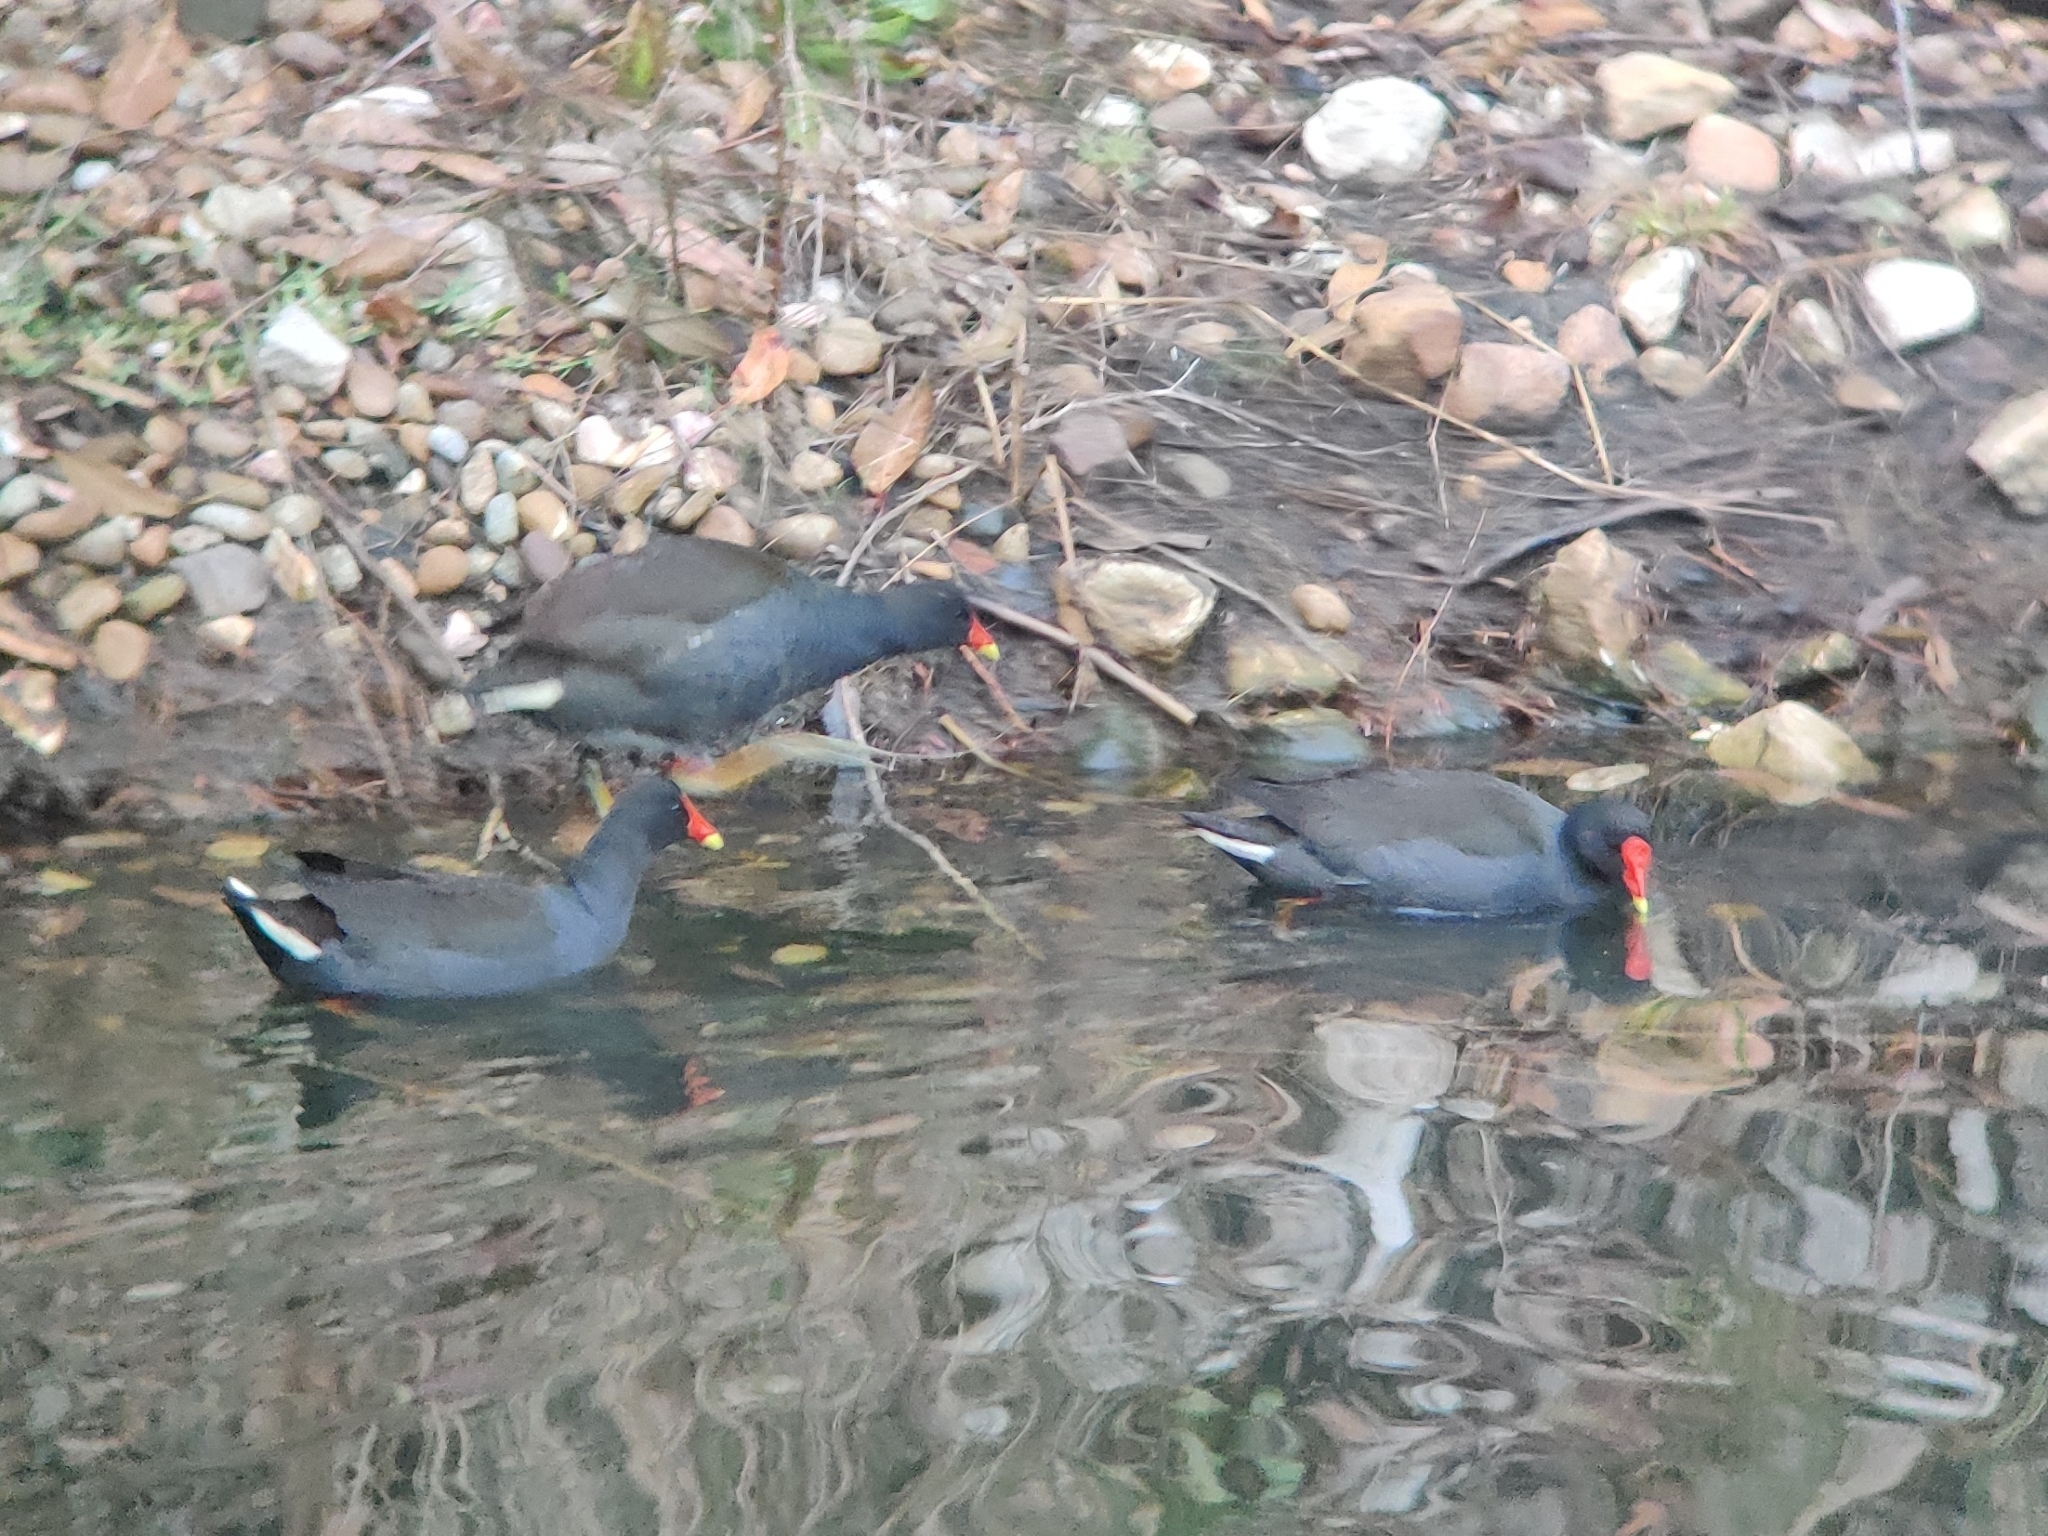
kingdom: Animalia
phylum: Chordata
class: Aves
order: Gruiformes
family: Rallidae
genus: Gallinula
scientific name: Gallinula tenebrosa
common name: Dusky moorhen
